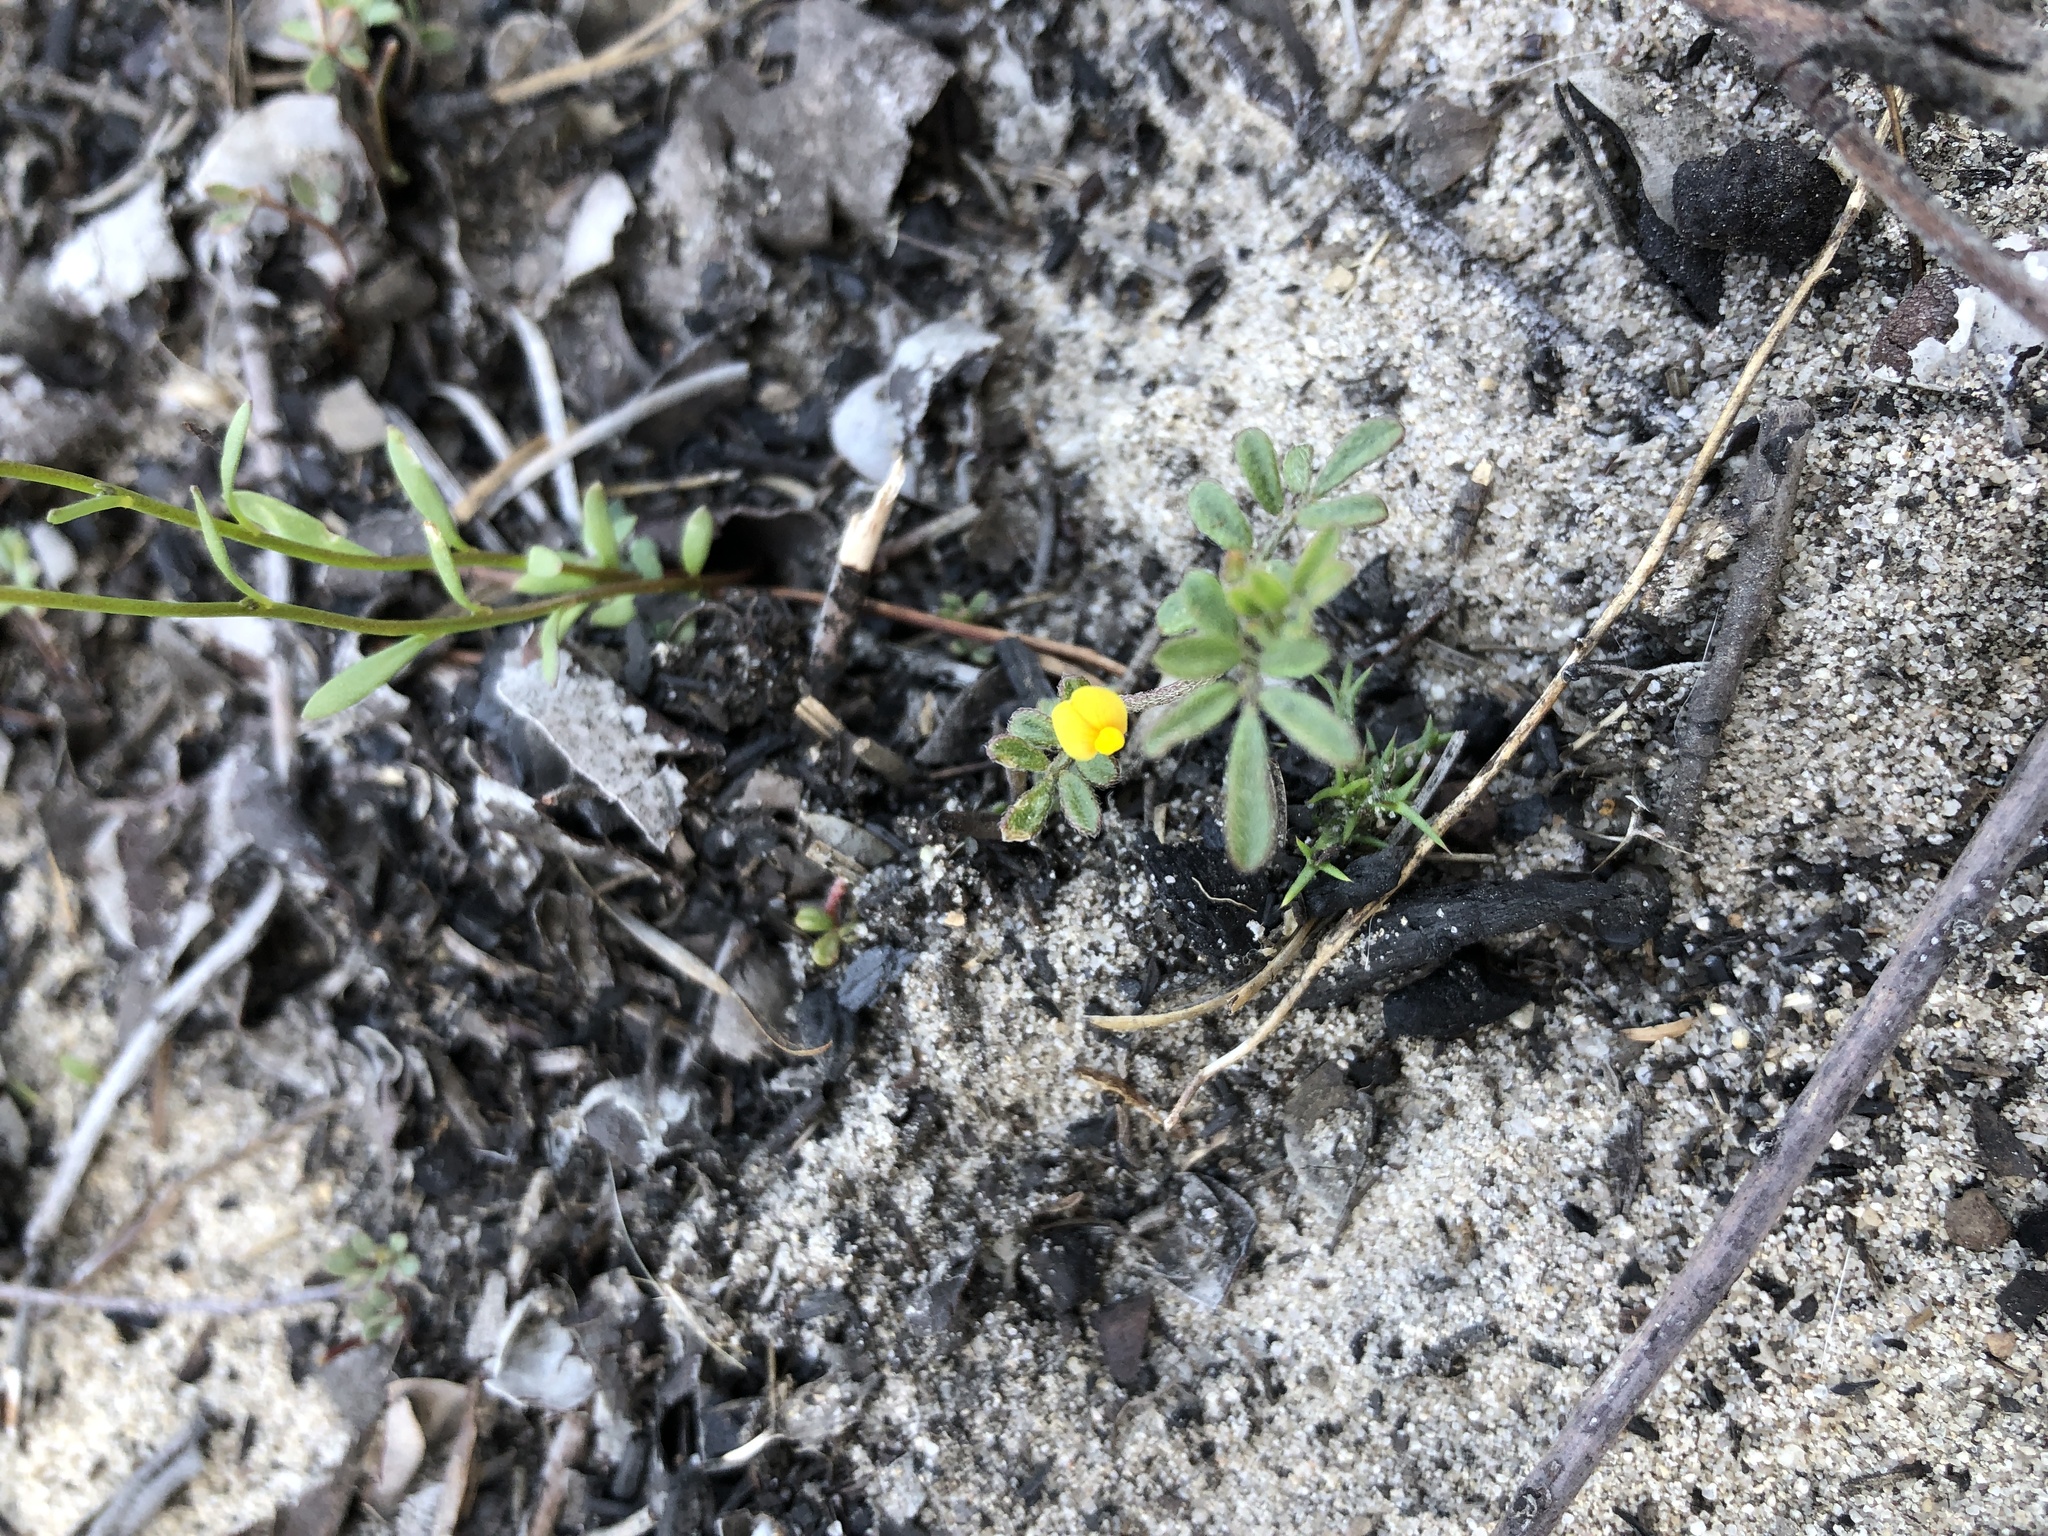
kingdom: Plantae
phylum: Tracheophyta
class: Magnoliopsida
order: Fabales
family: Fabaceae
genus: Acmispon
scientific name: Acmispon strigosus
